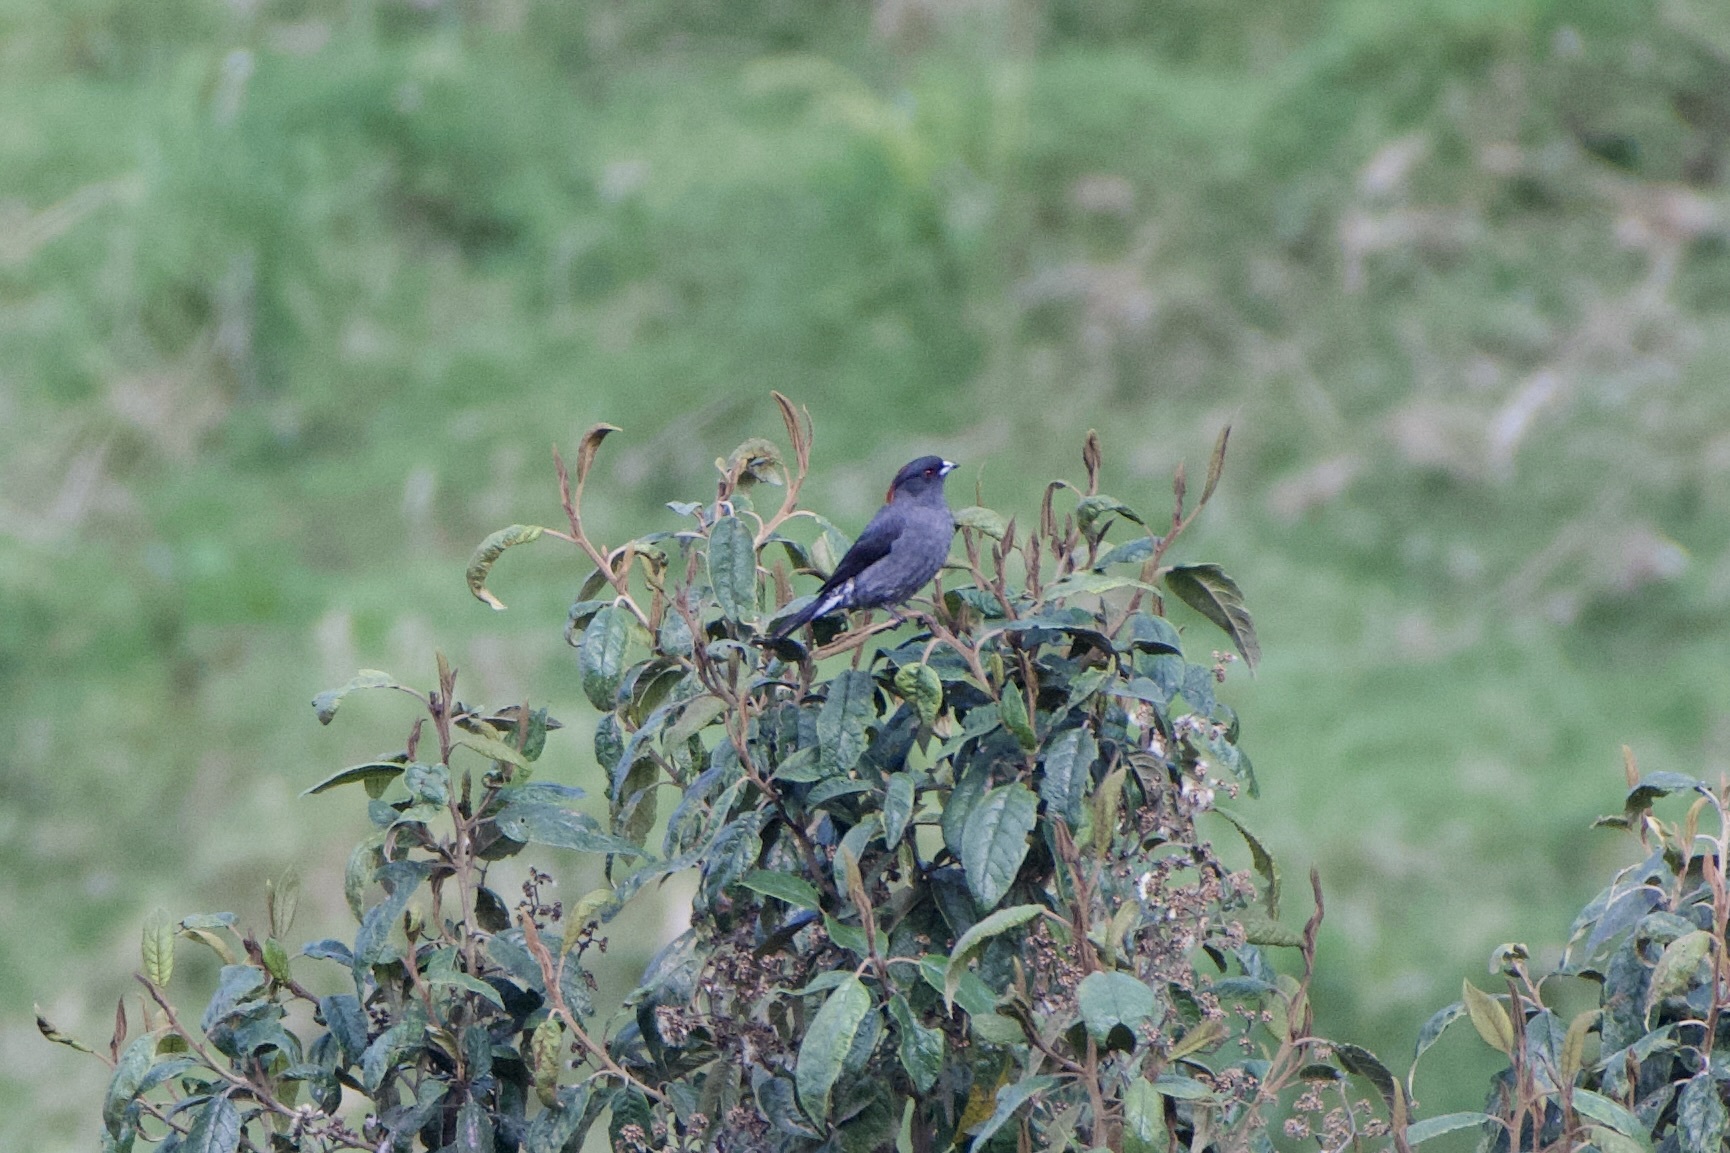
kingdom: Animalia
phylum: Chordata
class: Aves
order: Passeriformes
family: Cotingidae
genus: Ampelion
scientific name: Ampelion rubrocristatus
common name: Red-crested cotinga
